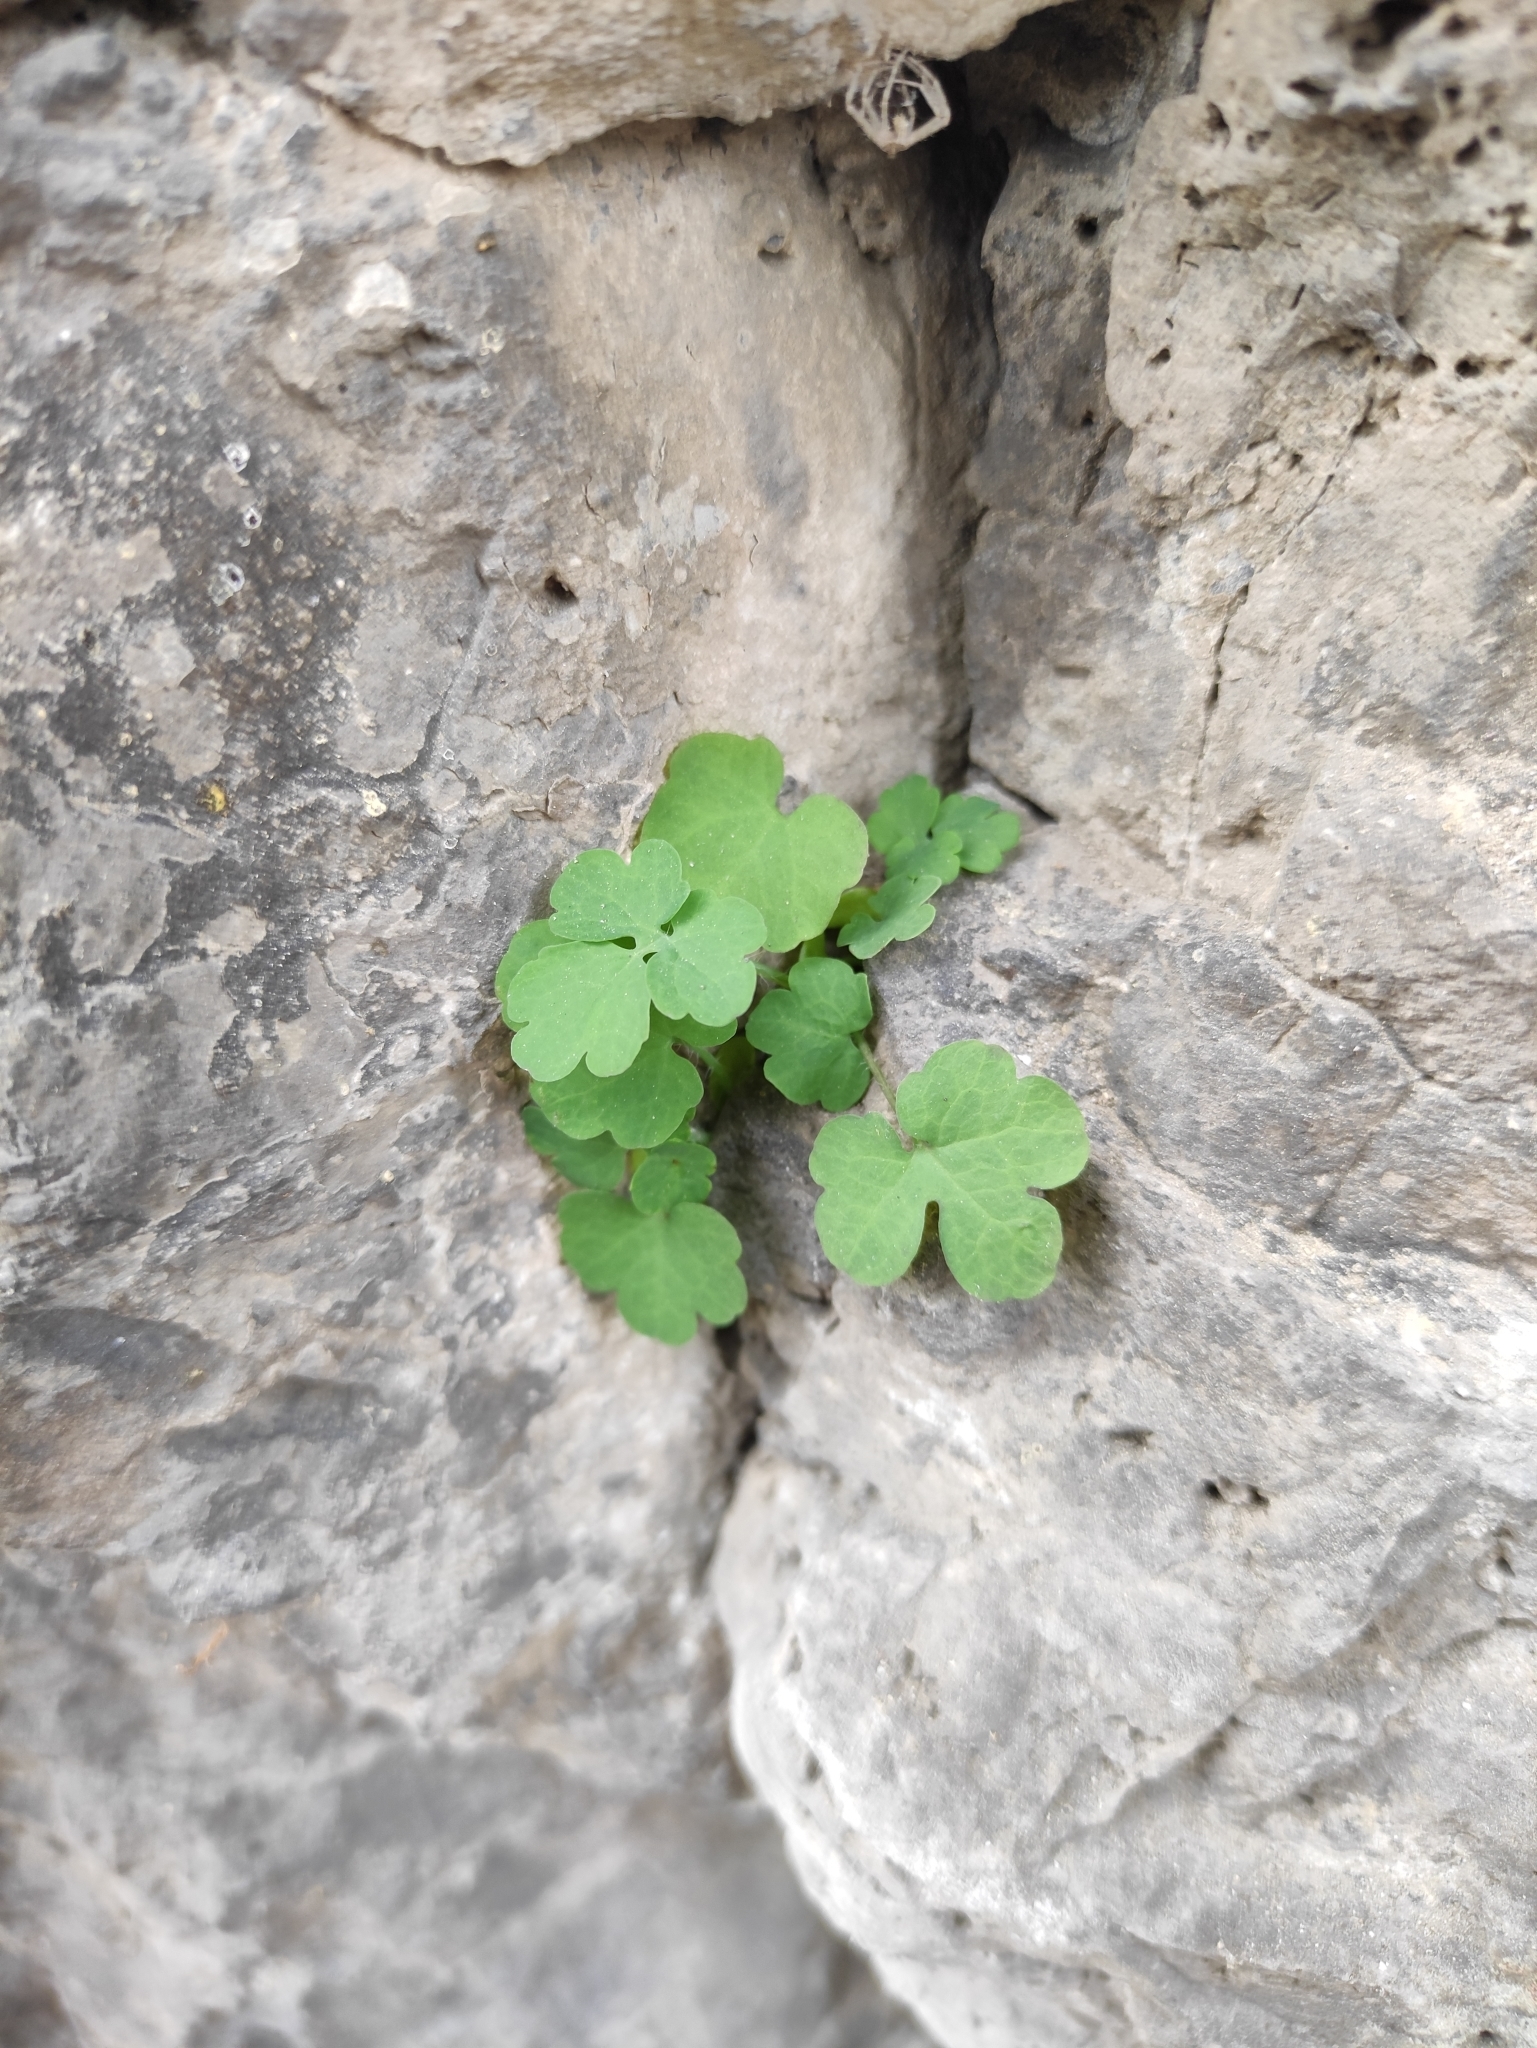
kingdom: Plantae
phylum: Tracheophyta
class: Magnoliopsida
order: Ranunculales
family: Papaveraceae
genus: Chelidonium
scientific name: Chelidonium majus
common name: Greater celandine
